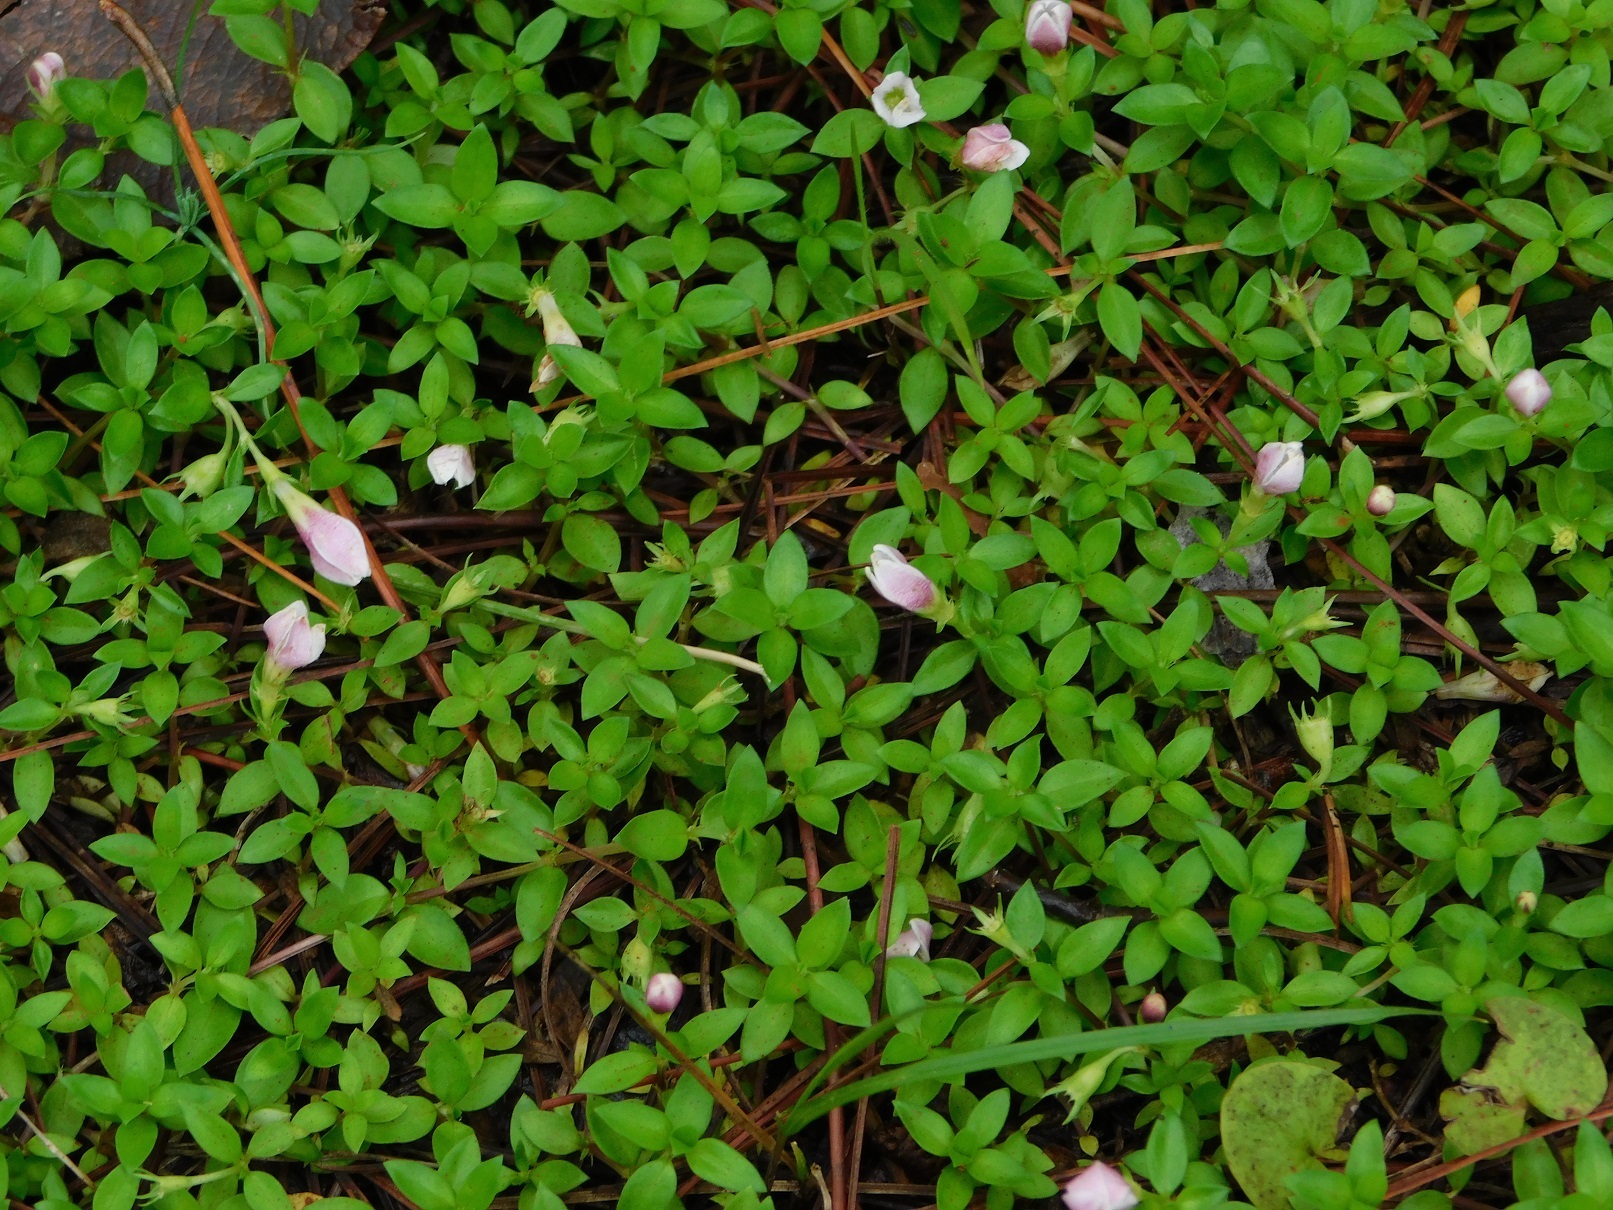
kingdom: Plantae
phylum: Tracheophyta
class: Magnoliopsida
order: Gentianales
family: Rubiaceae
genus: Arcytophyllum
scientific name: Arcytophyllum serpyllaceum
